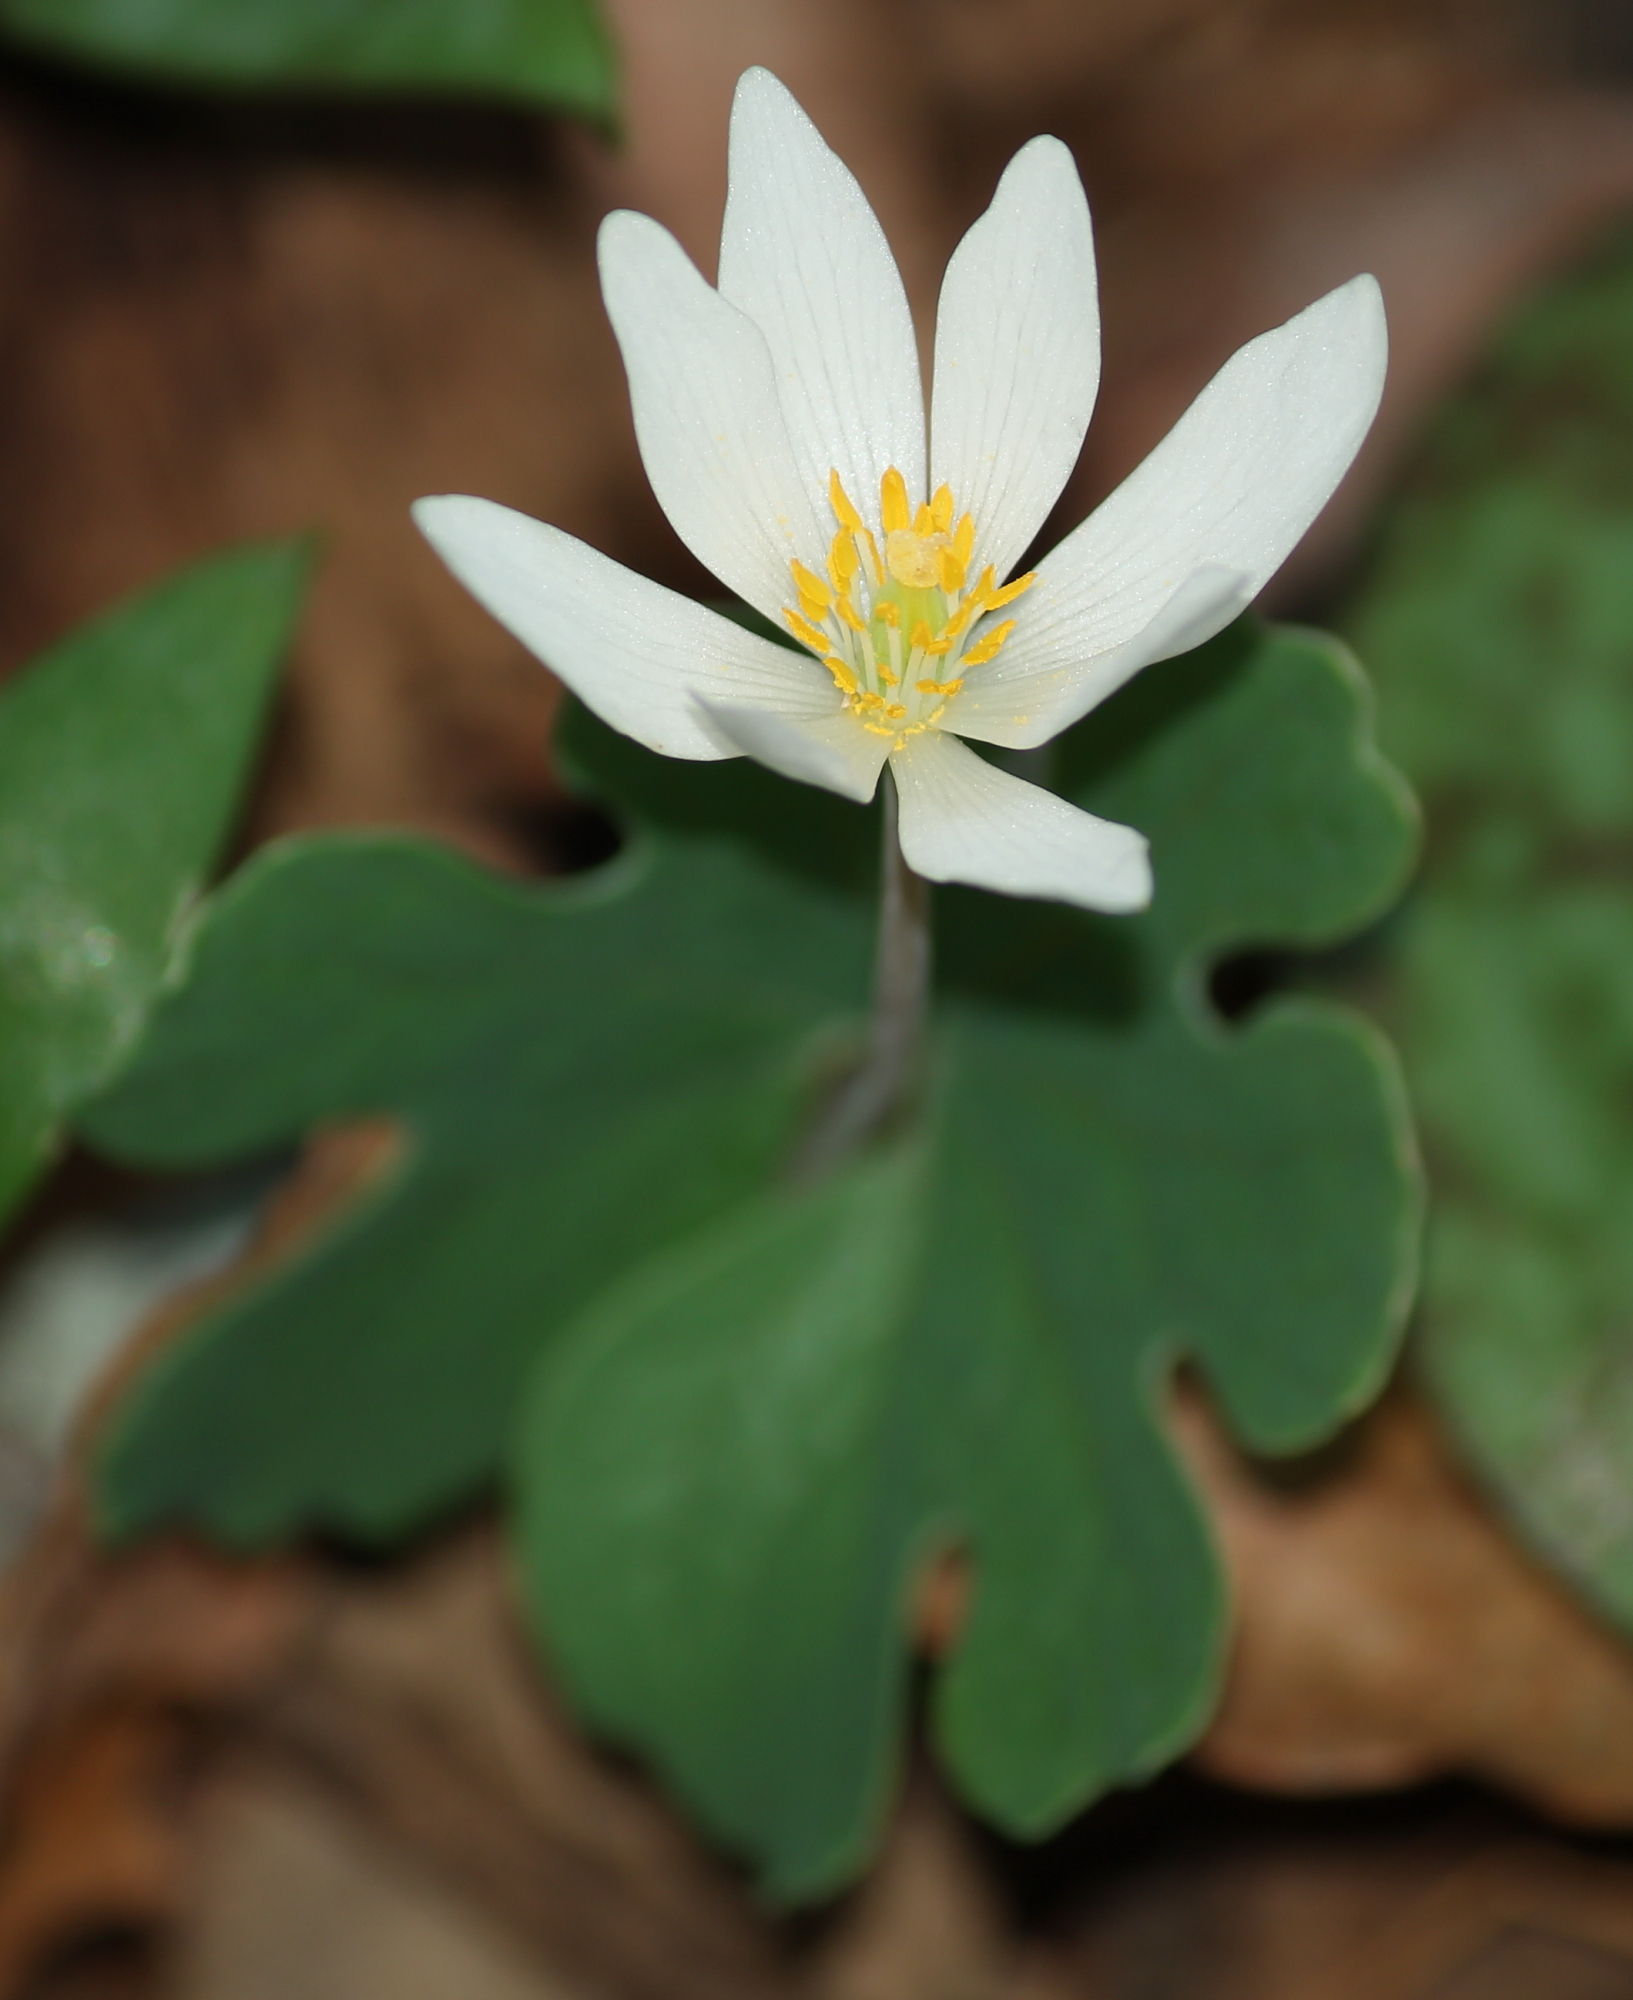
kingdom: Plantae
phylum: Tracheophyta
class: Magnoliopsida
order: Ranunculales
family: Papaveraceae
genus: Sanguinaria
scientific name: Sanguinaria canadensis
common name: Bloodroot
